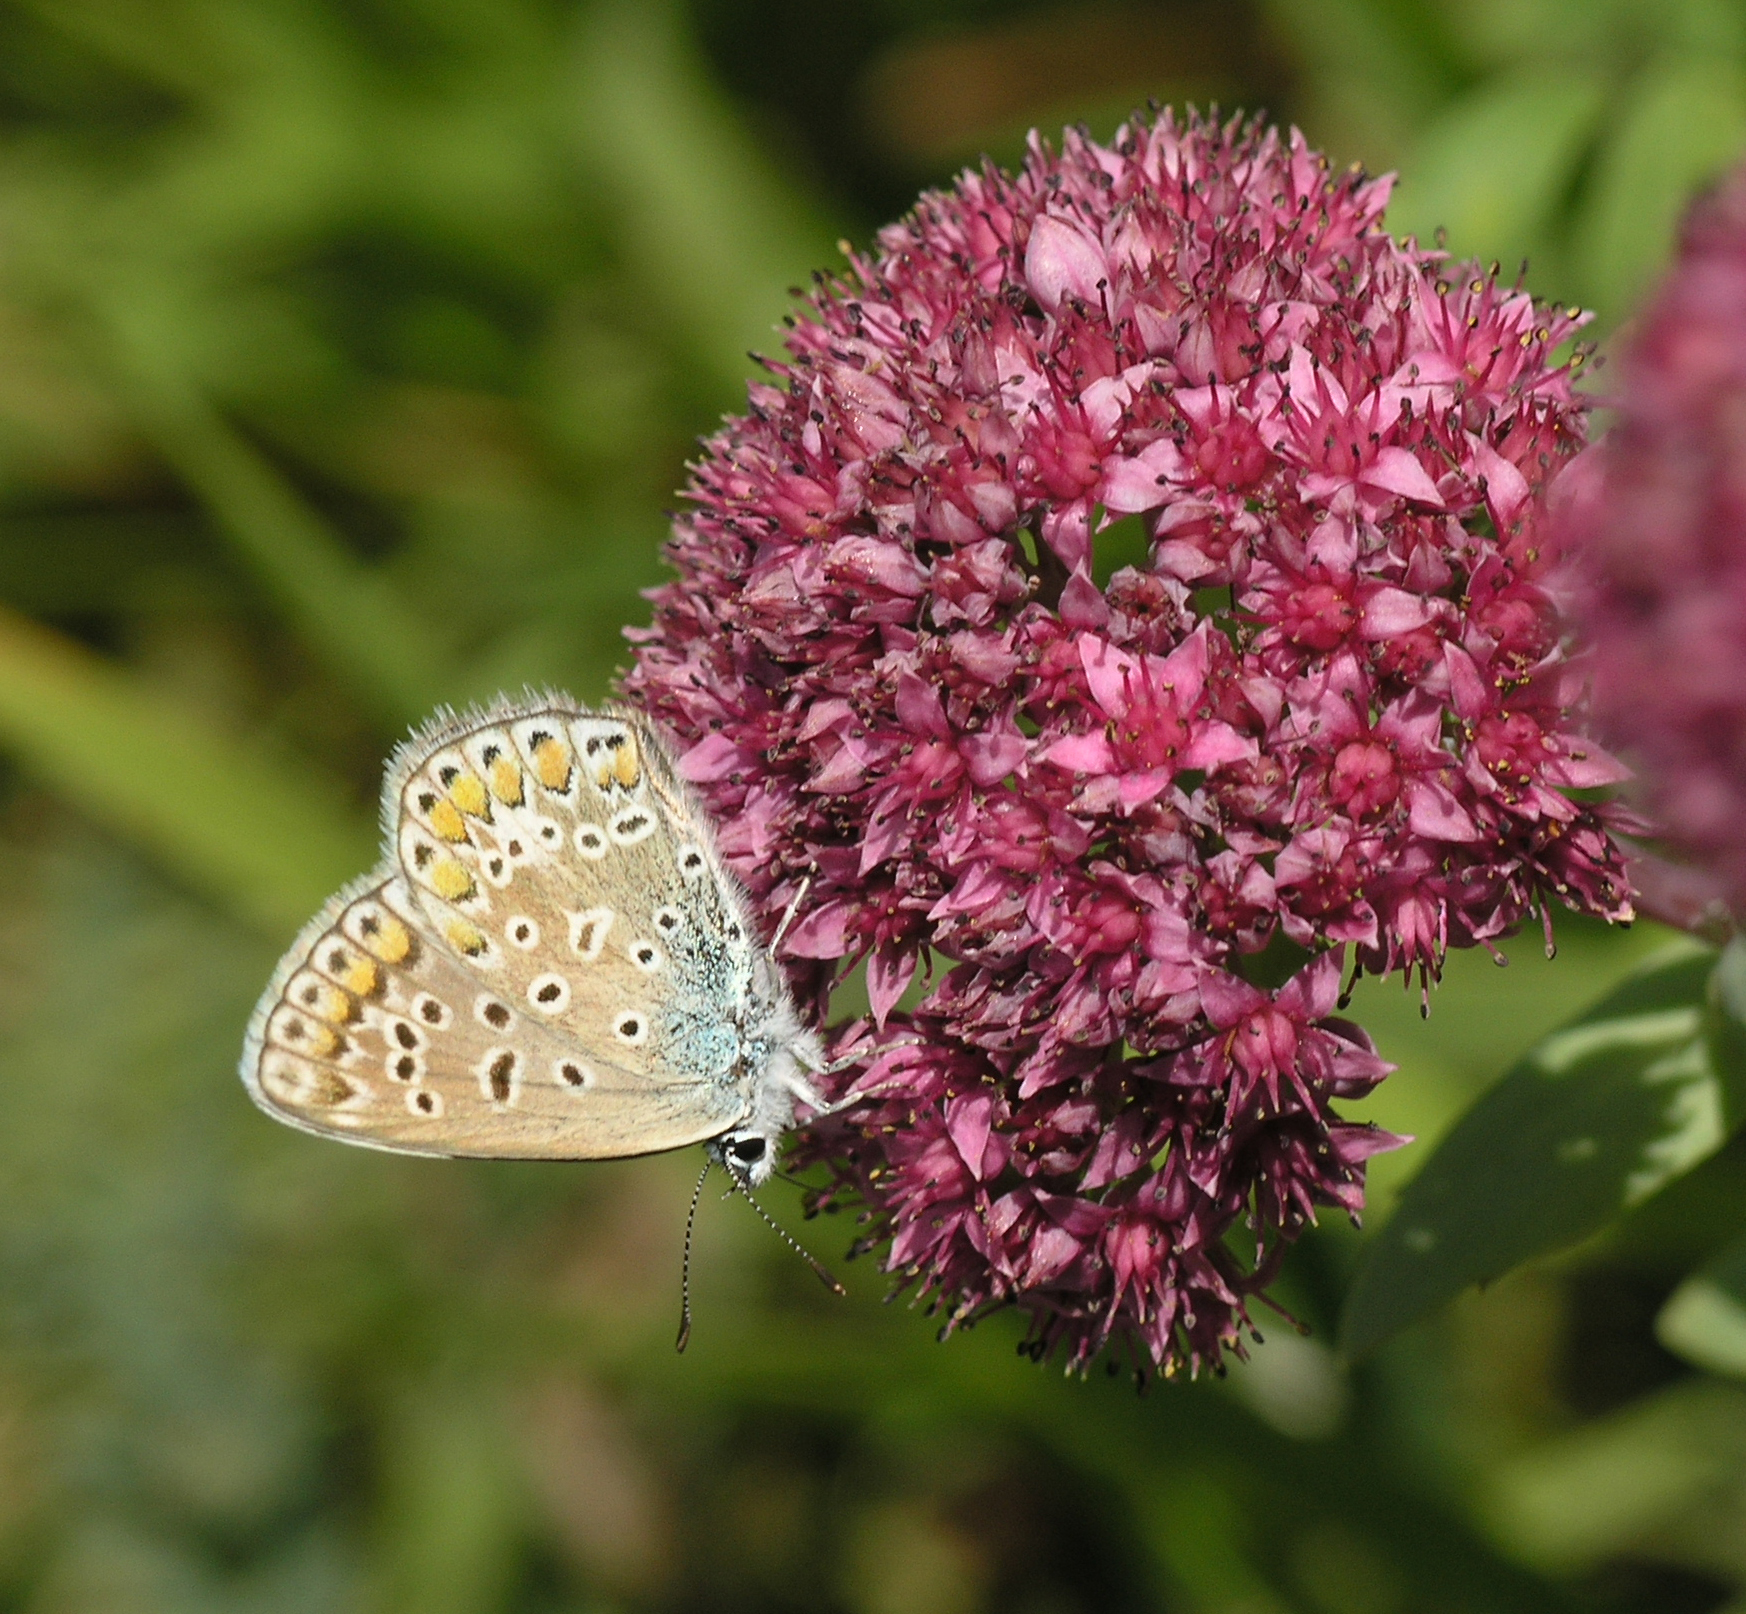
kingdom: Plantae
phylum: Tracheophyta
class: Magnoliopsida
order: Saxifragales
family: Crassulaceae
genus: Hylotelephium
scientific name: Hylotelephium telephium
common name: Live-forever
